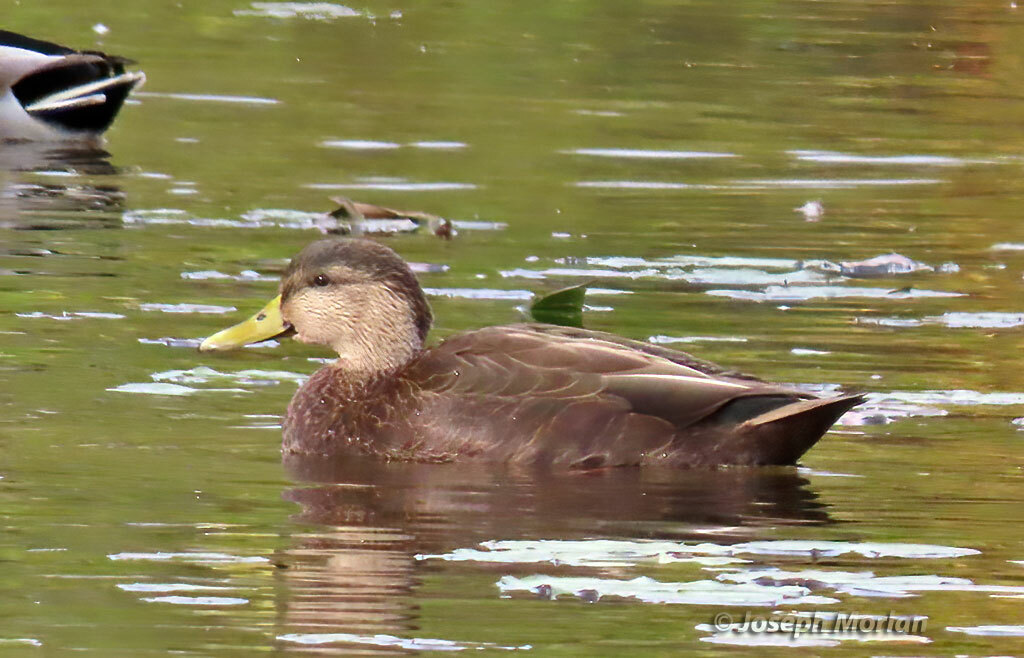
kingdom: Animalia
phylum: Chordata
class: Aves
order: Anseriformes
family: Anatidae
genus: Anas
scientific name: Anas rubripes
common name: American black duck
